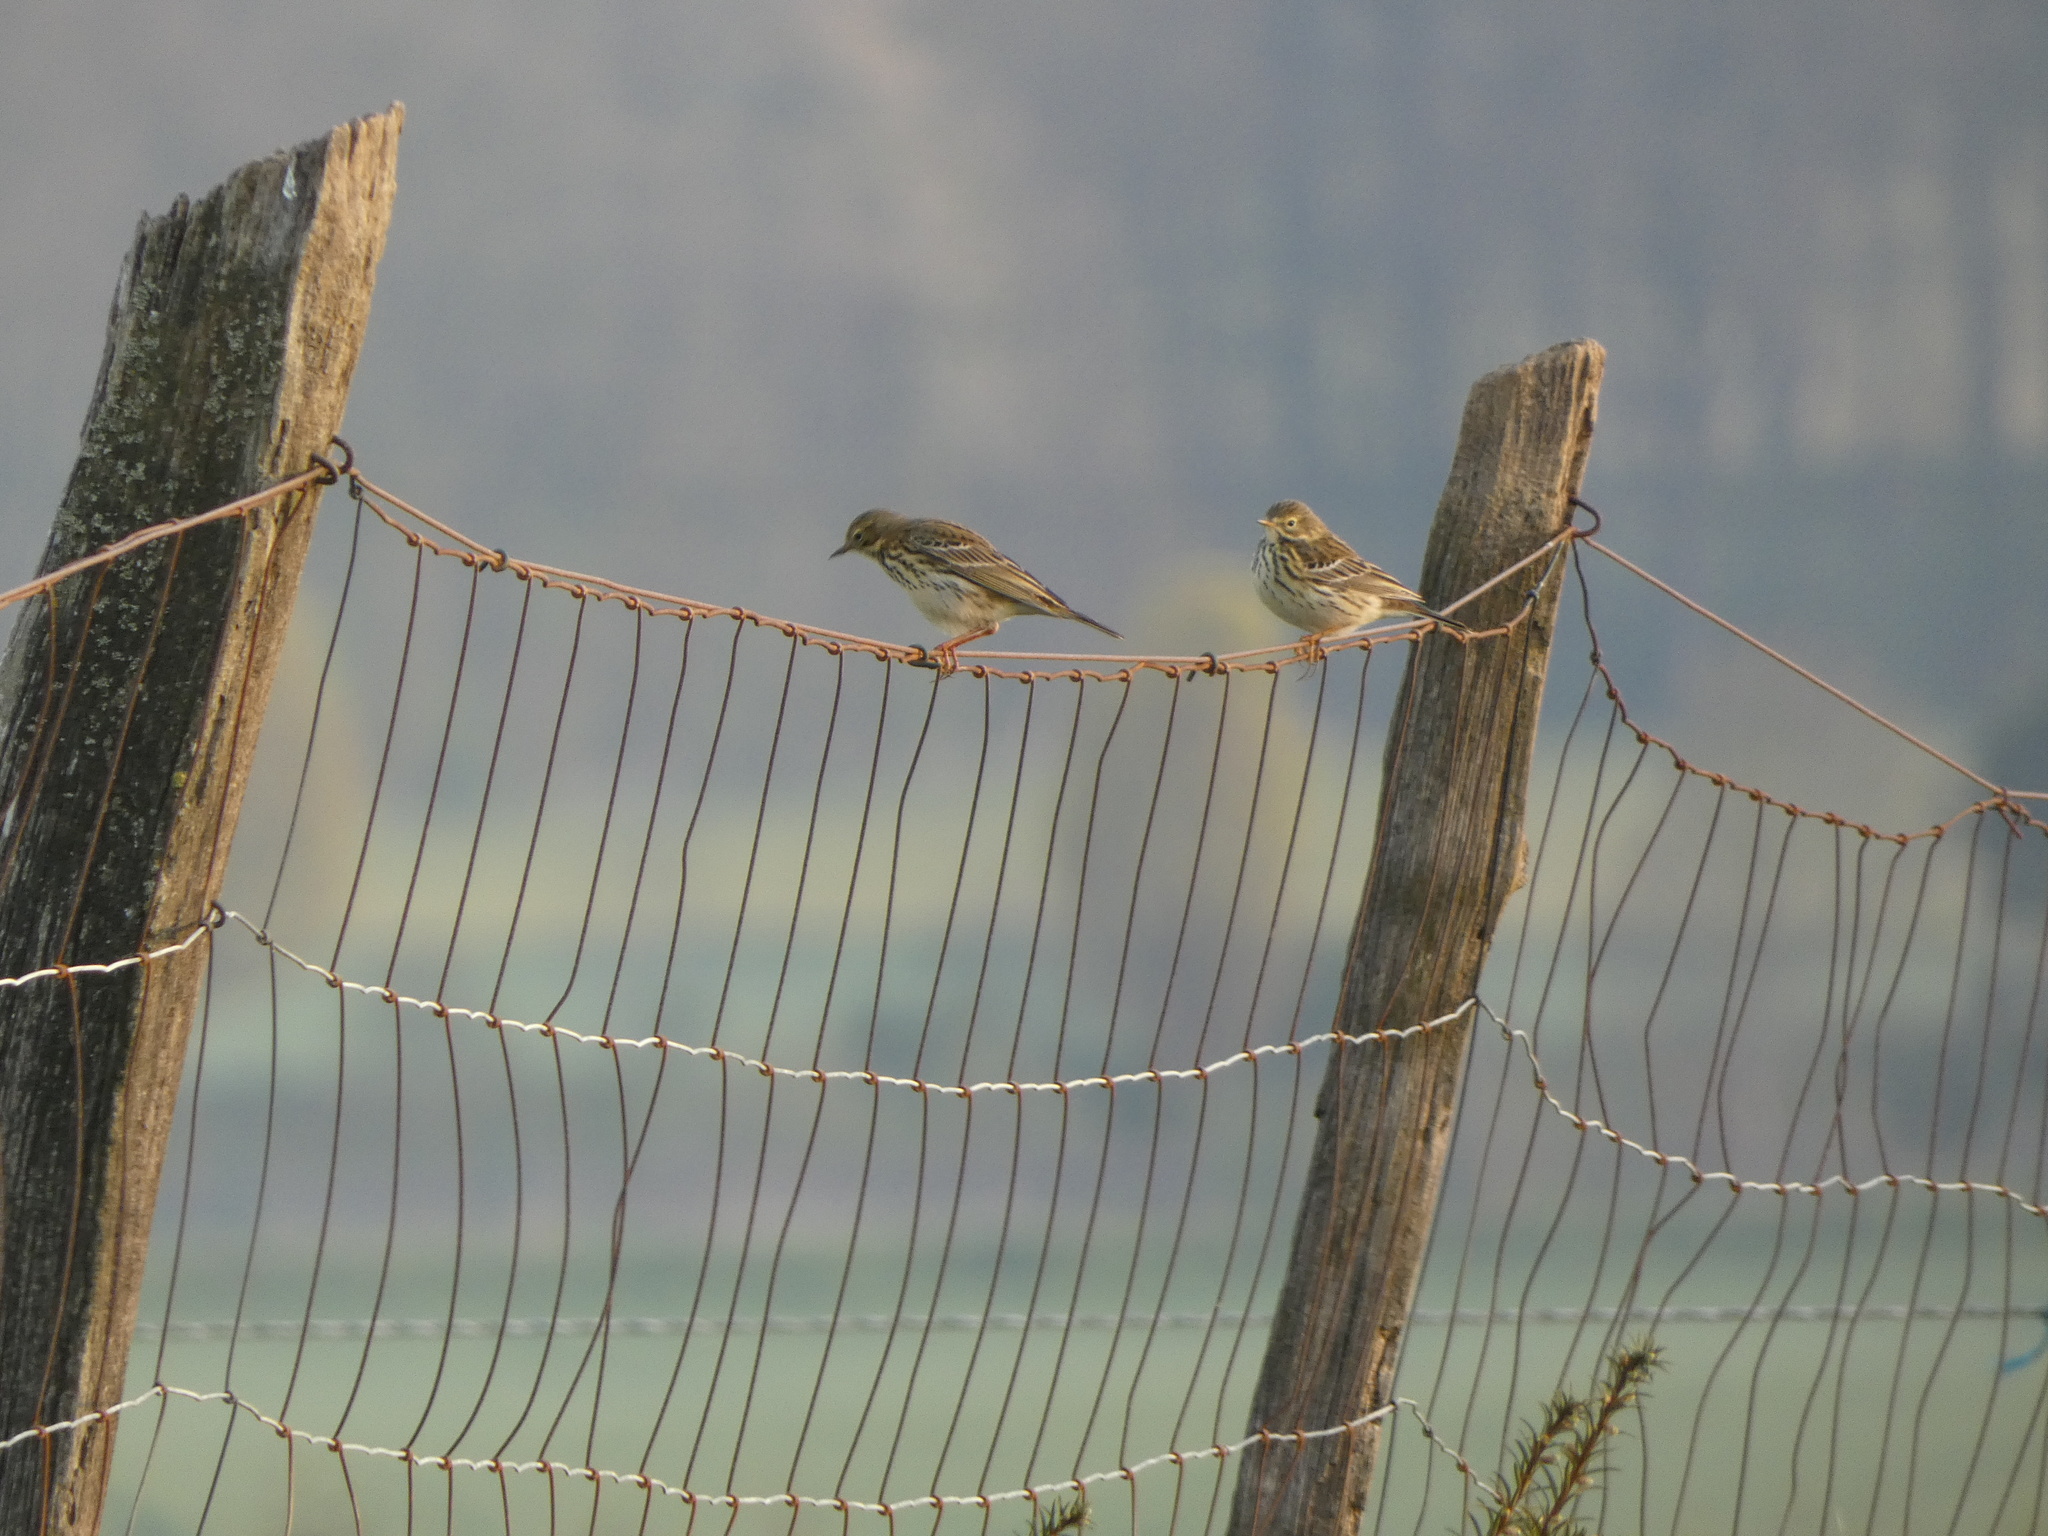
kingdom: Animalia
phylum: Chordata
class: Aves
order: Passeriformes
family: Motacillidae
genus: Anthus
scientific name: Anthus pratensis
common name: Meadow pipit
